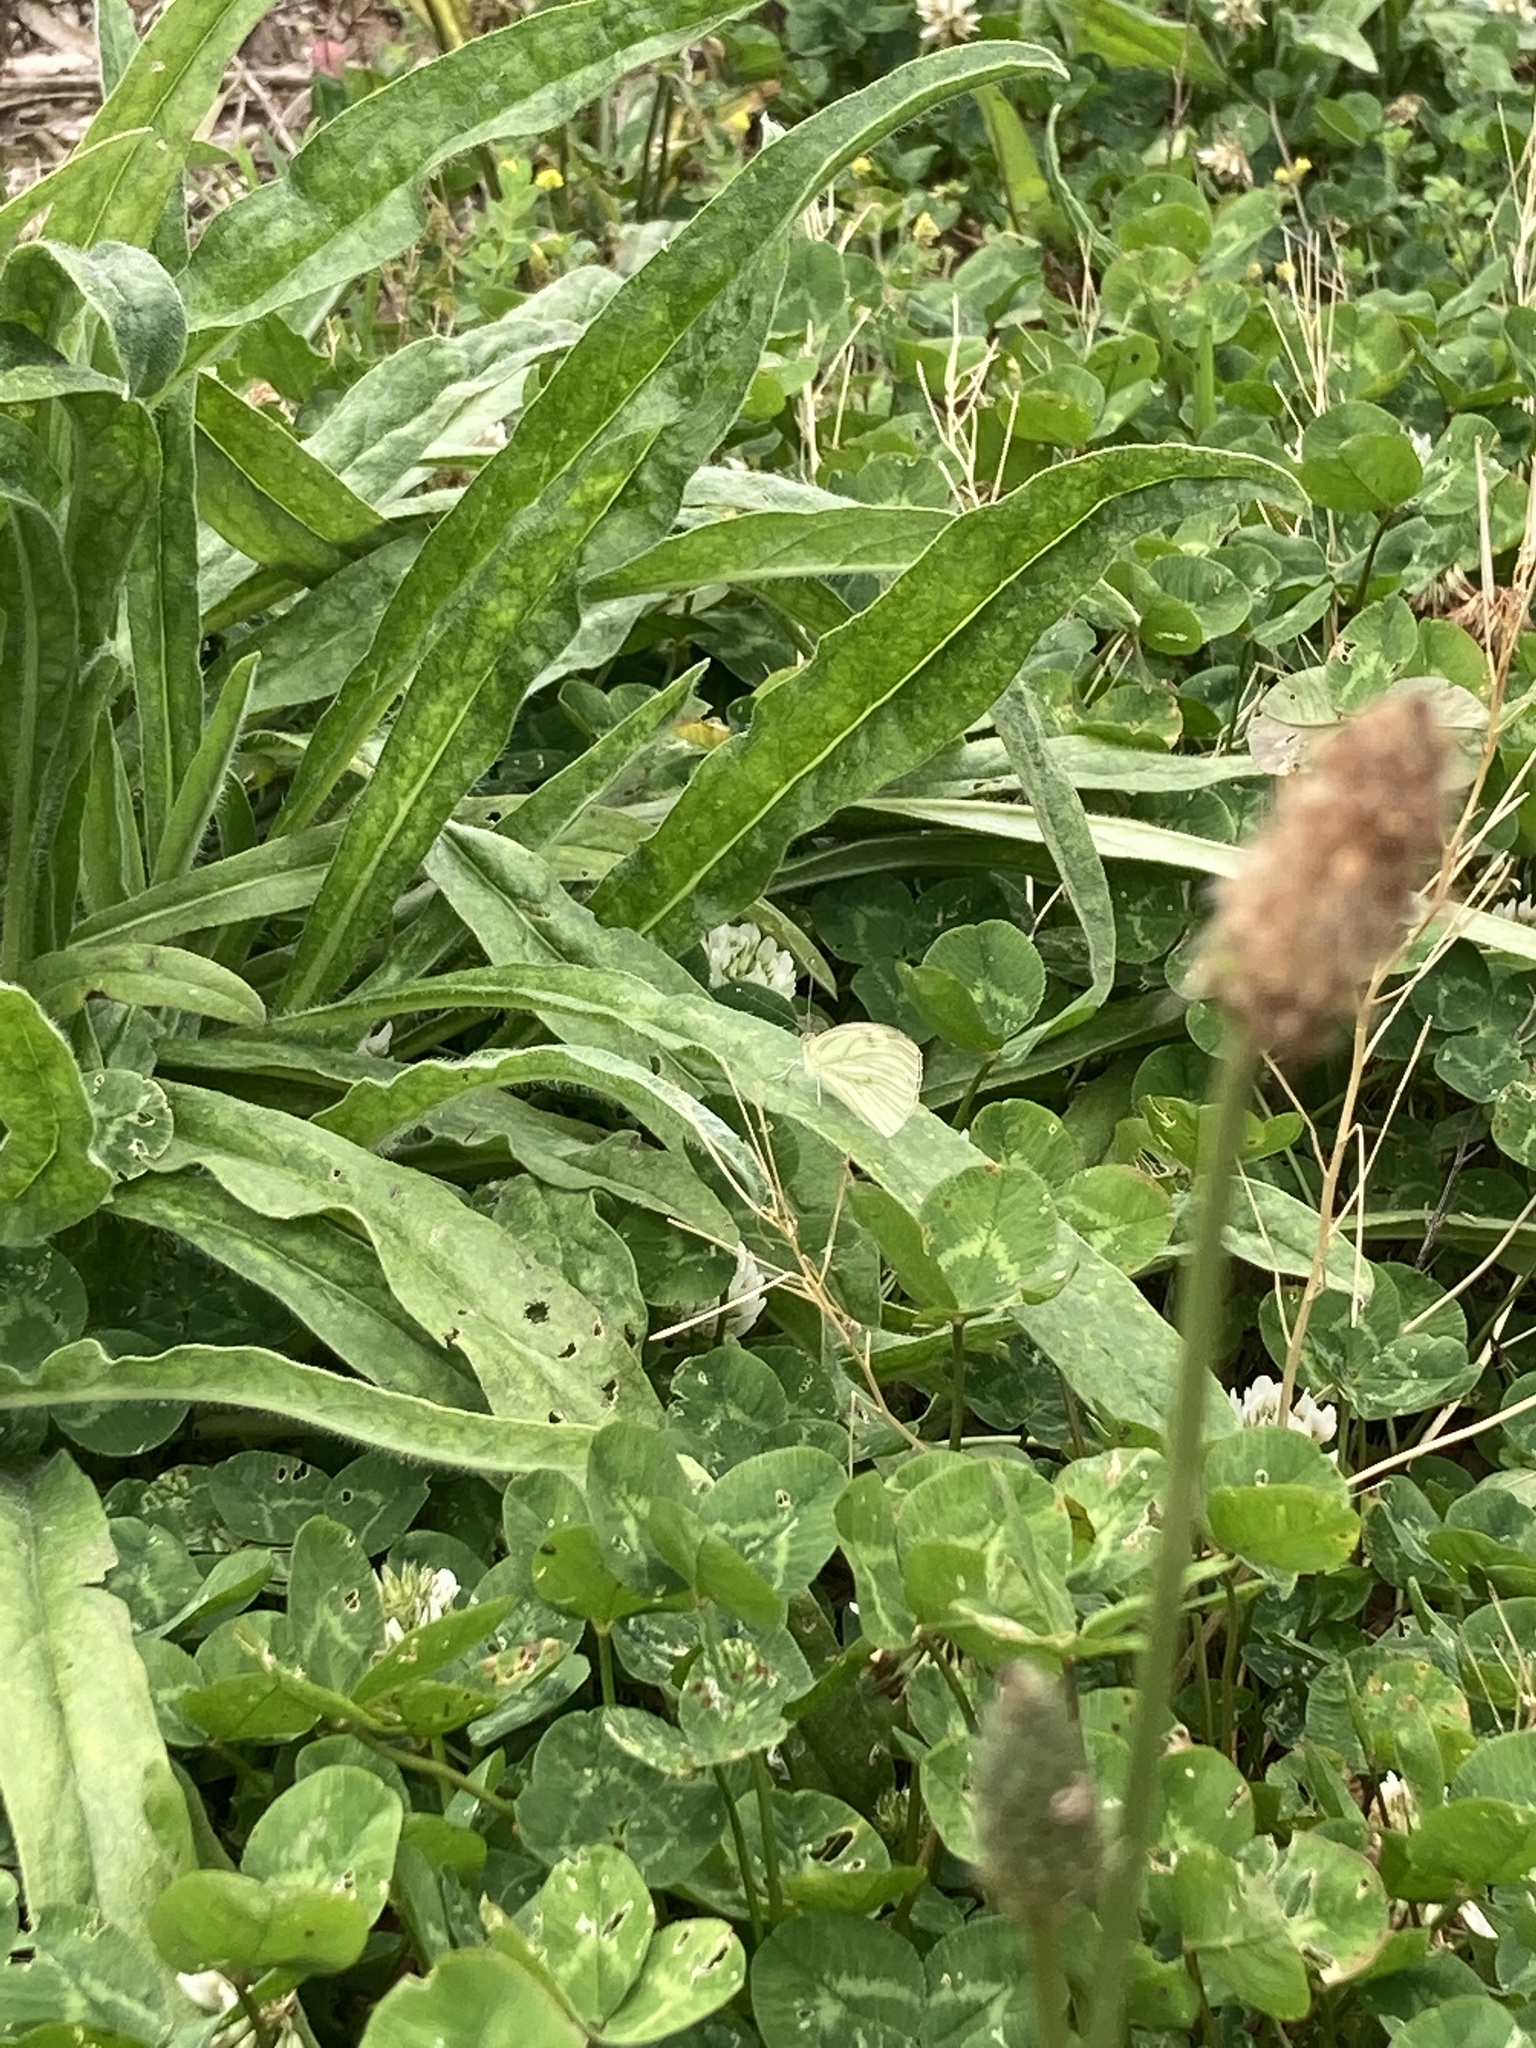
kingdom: Animalia
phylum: Arthropoda
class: Insecta
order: Lepidoptera
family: Pieridae
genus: Pieris
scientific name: Pieris napi
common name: Green-veined white
